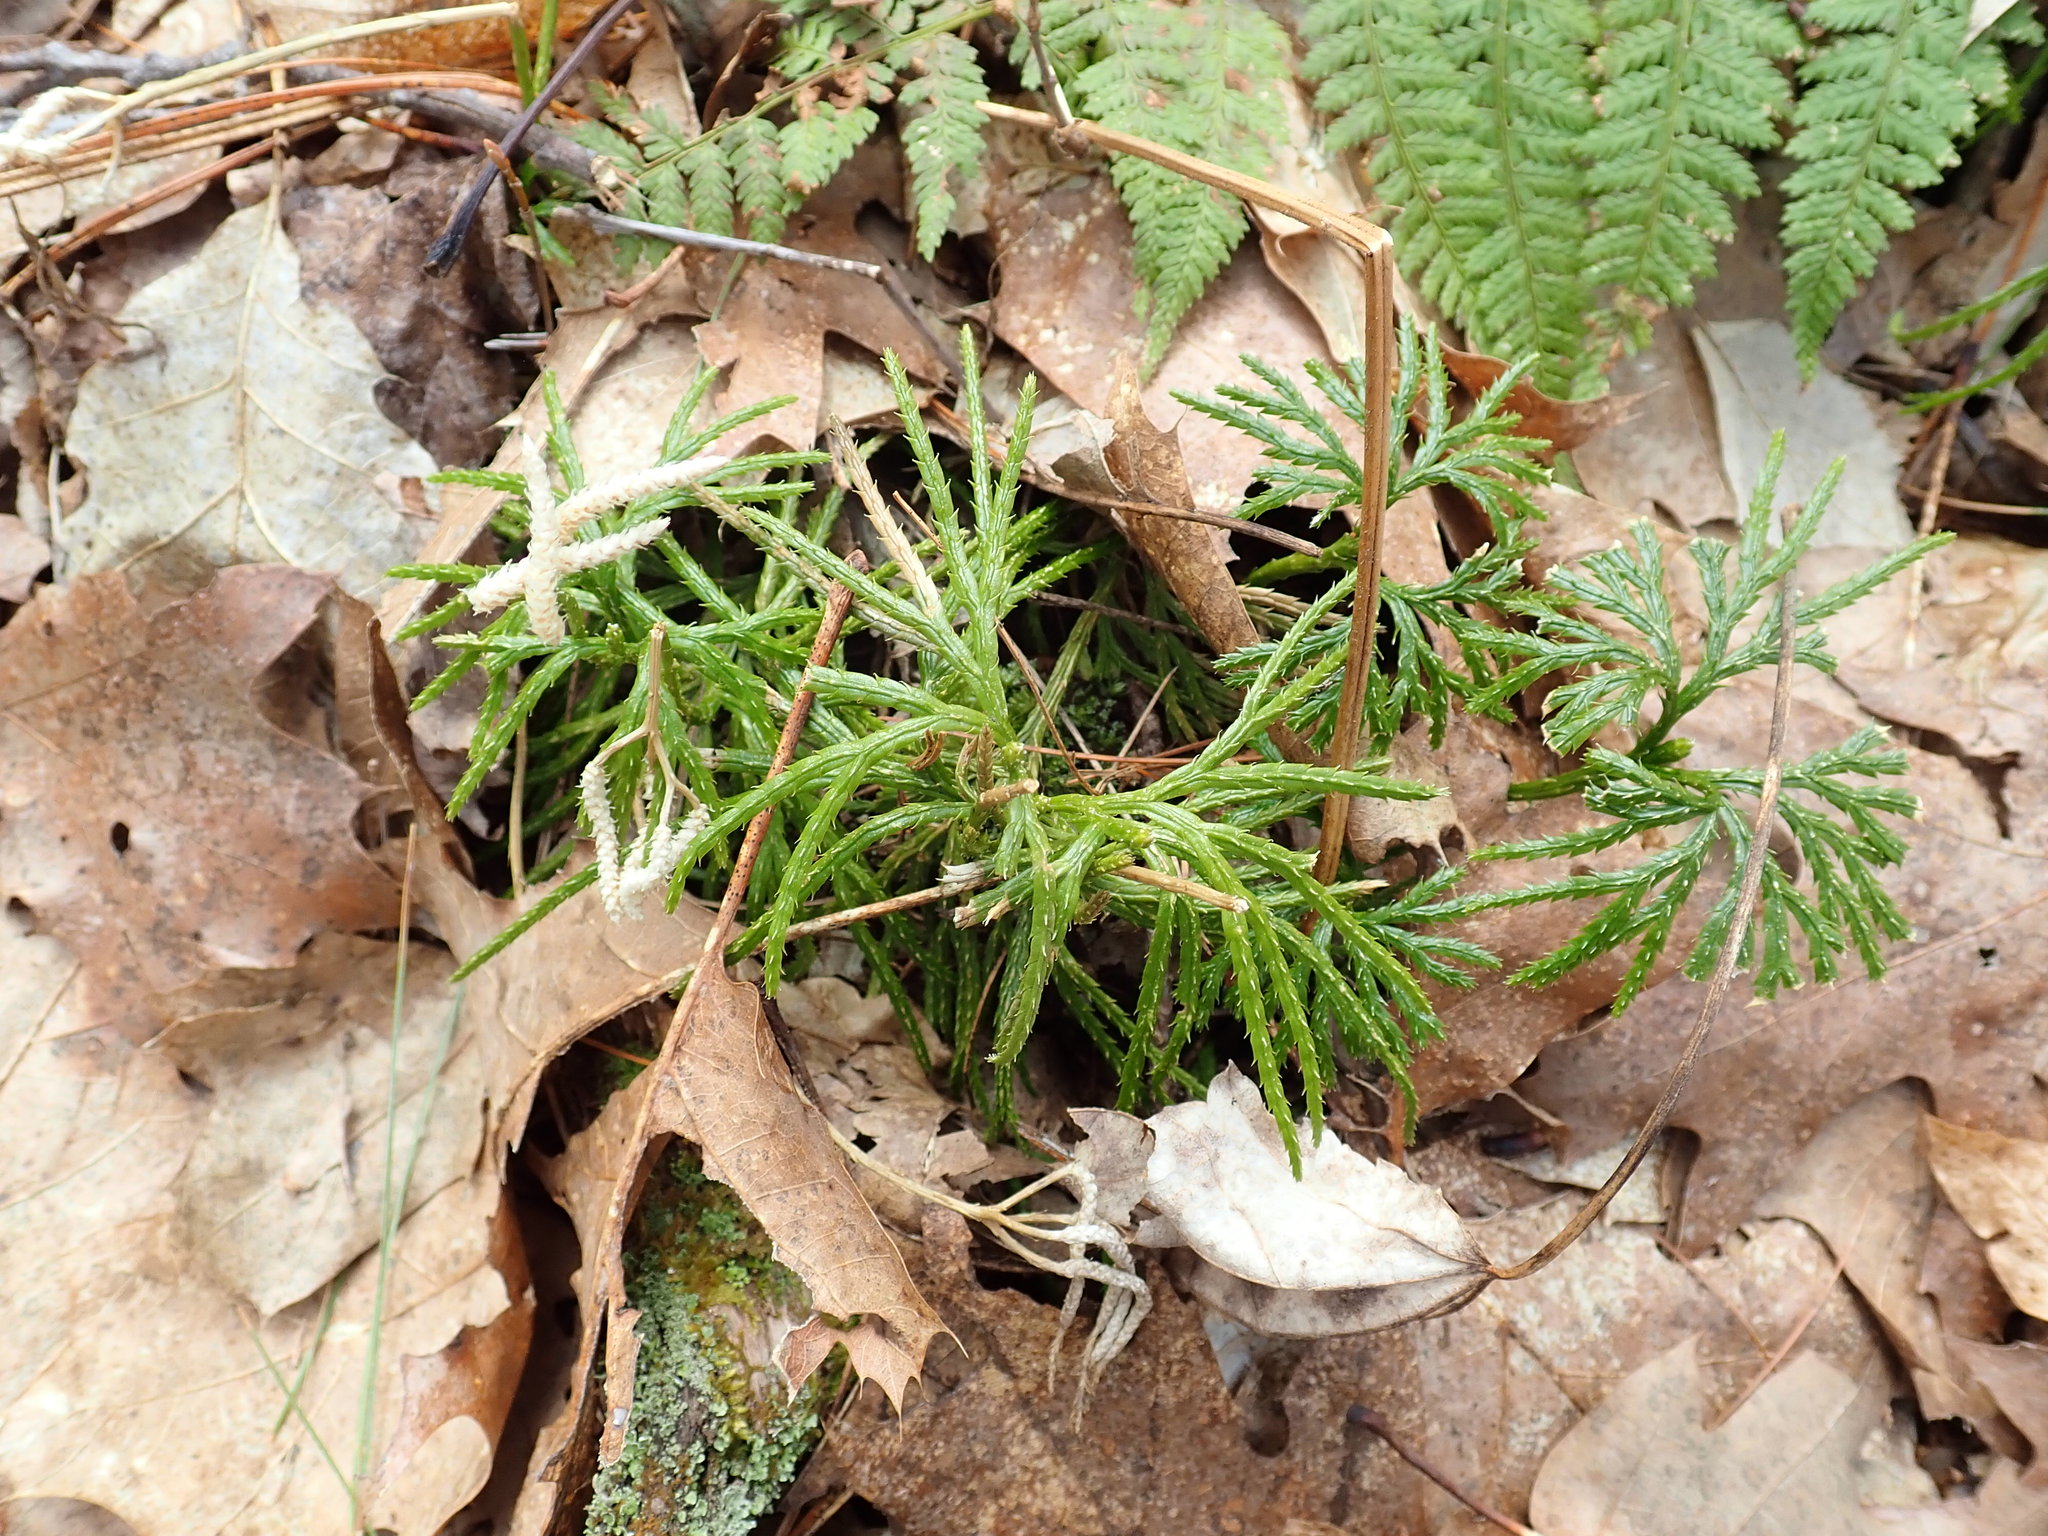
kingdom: Plantae
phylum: Tracheophyta
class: Lycopodiopsida
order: Lycopodiales
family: Lycopodiaceae
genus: Diphasiastrum
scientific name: Diphasiastrum digitatum
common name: Southern running-pine
